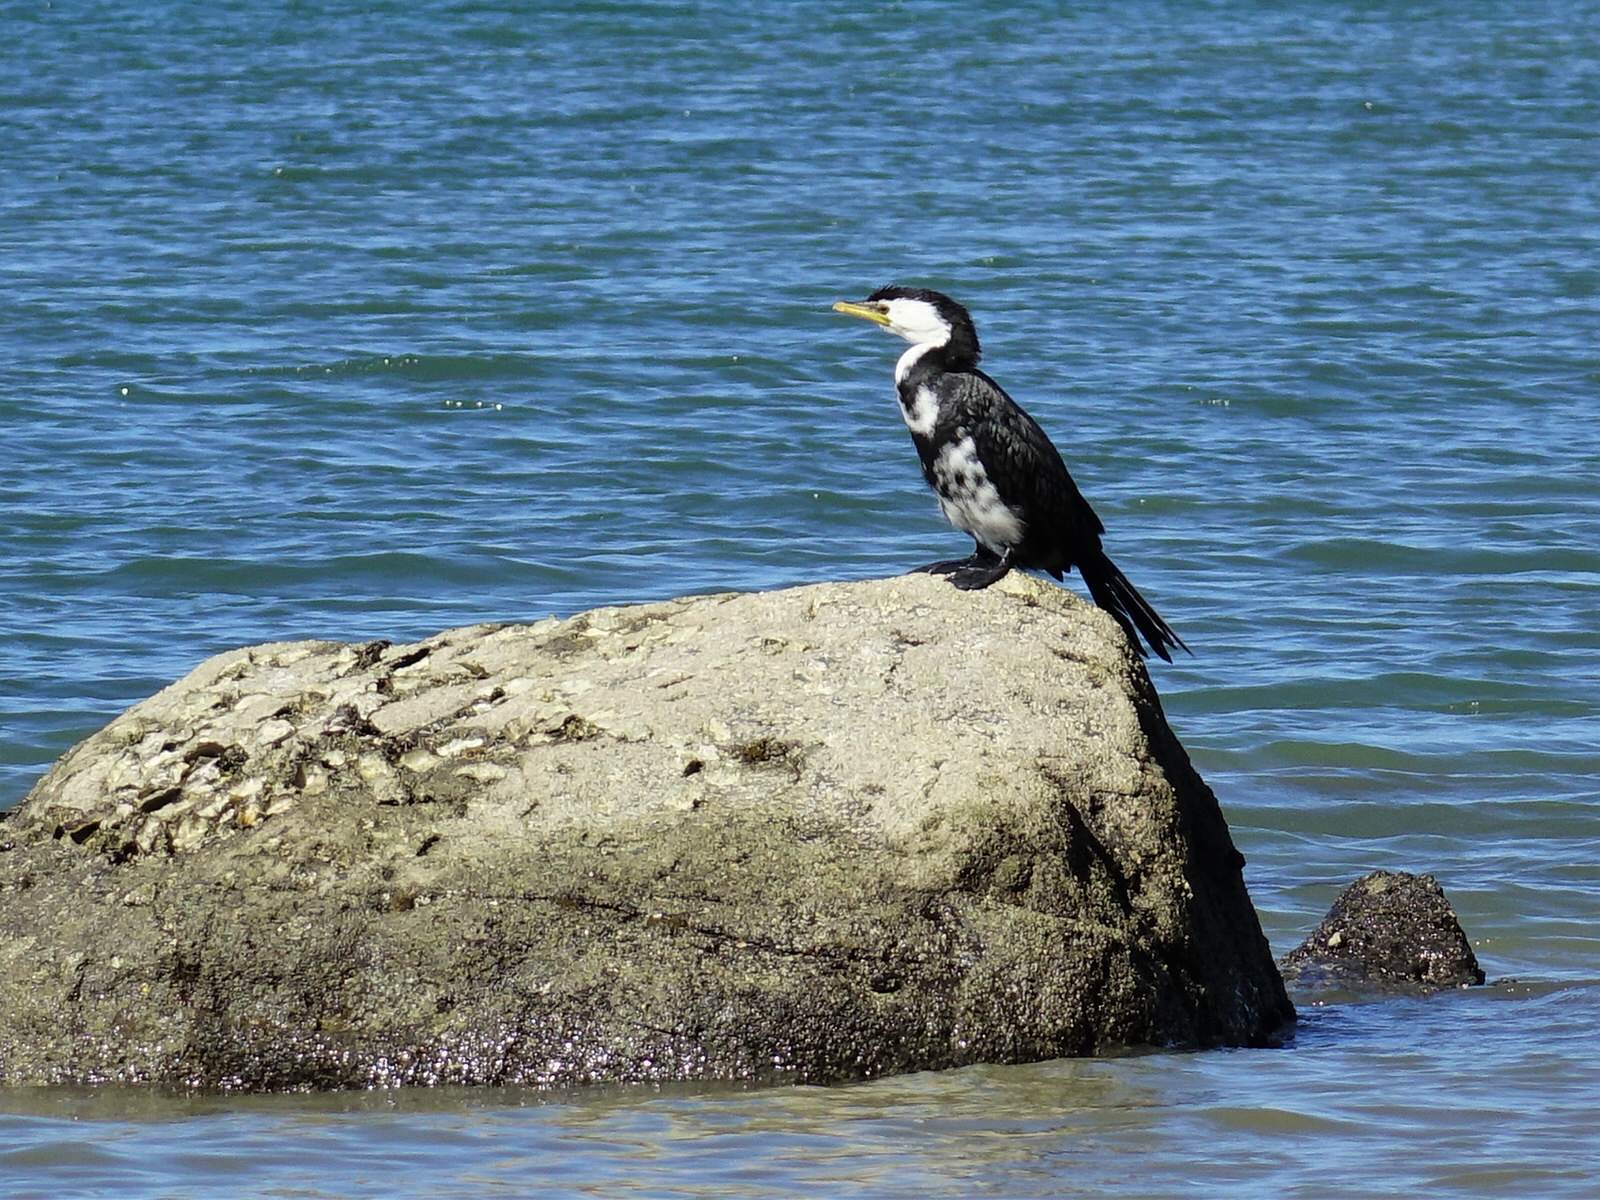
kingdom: Animalia
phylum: Chordata
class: Aves
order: Suliformes
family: Phalacrocoracidae
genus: Microcarbo
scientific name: Microcarbo melanoleucos
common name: Little pied cormorant
